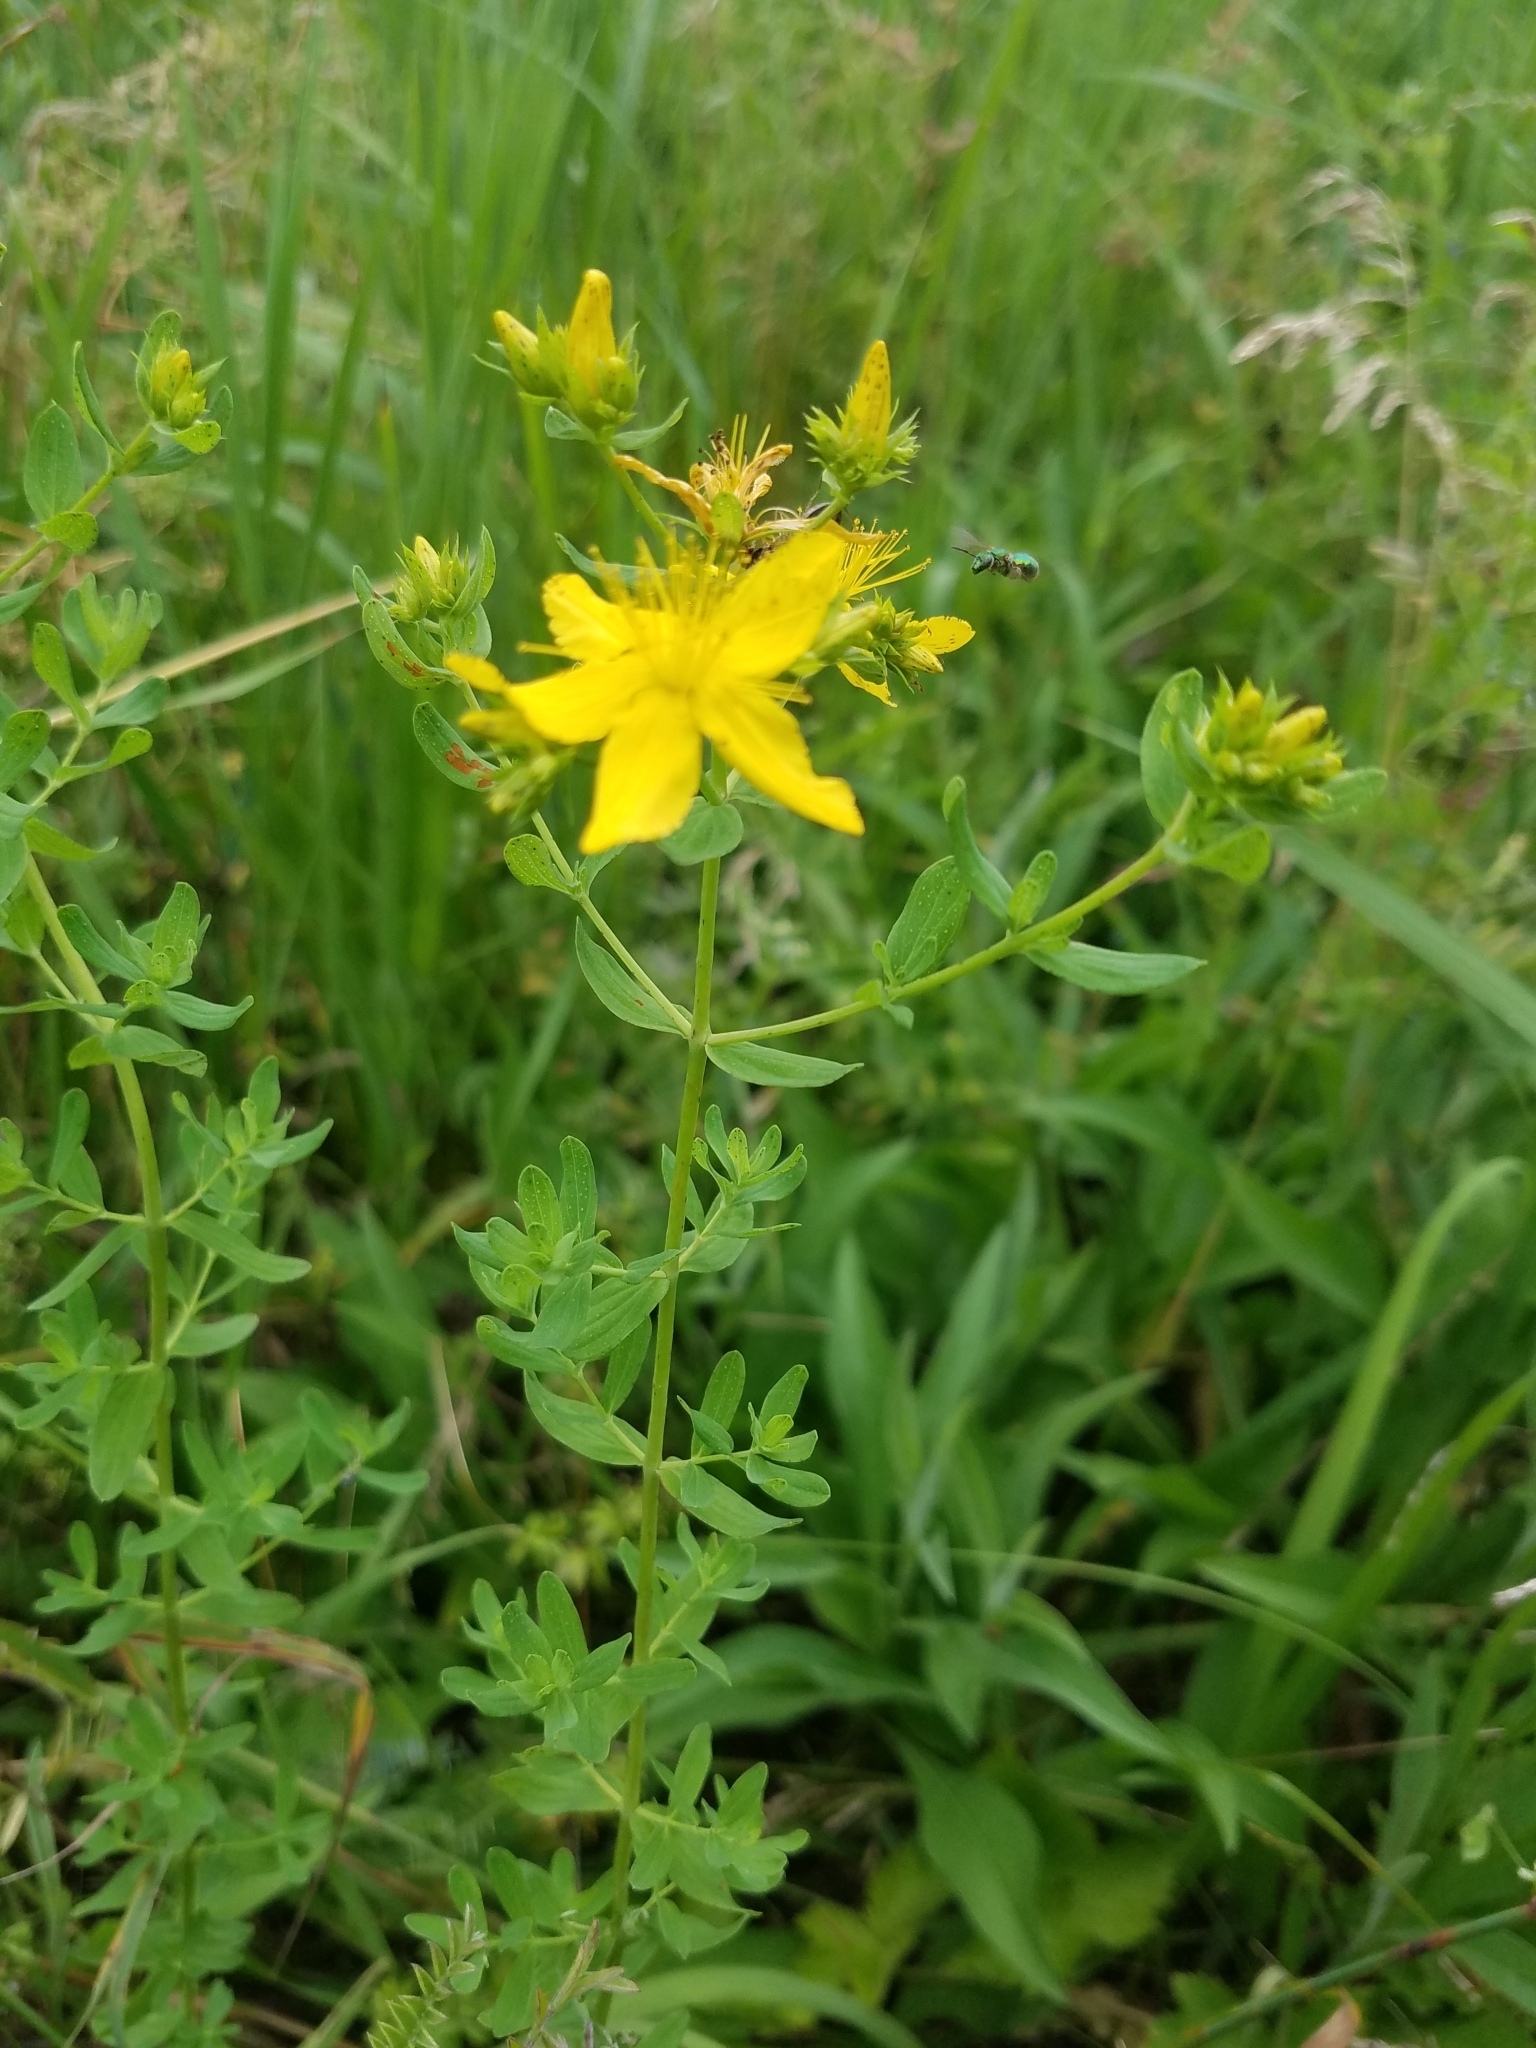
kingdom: Plantae
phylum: Tracheophyta
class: Magnoliopsida
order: Malpighiales
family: Hypericaceae
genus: Hypericum
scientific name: Hypericum perforatum
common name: Common st. johnswort
